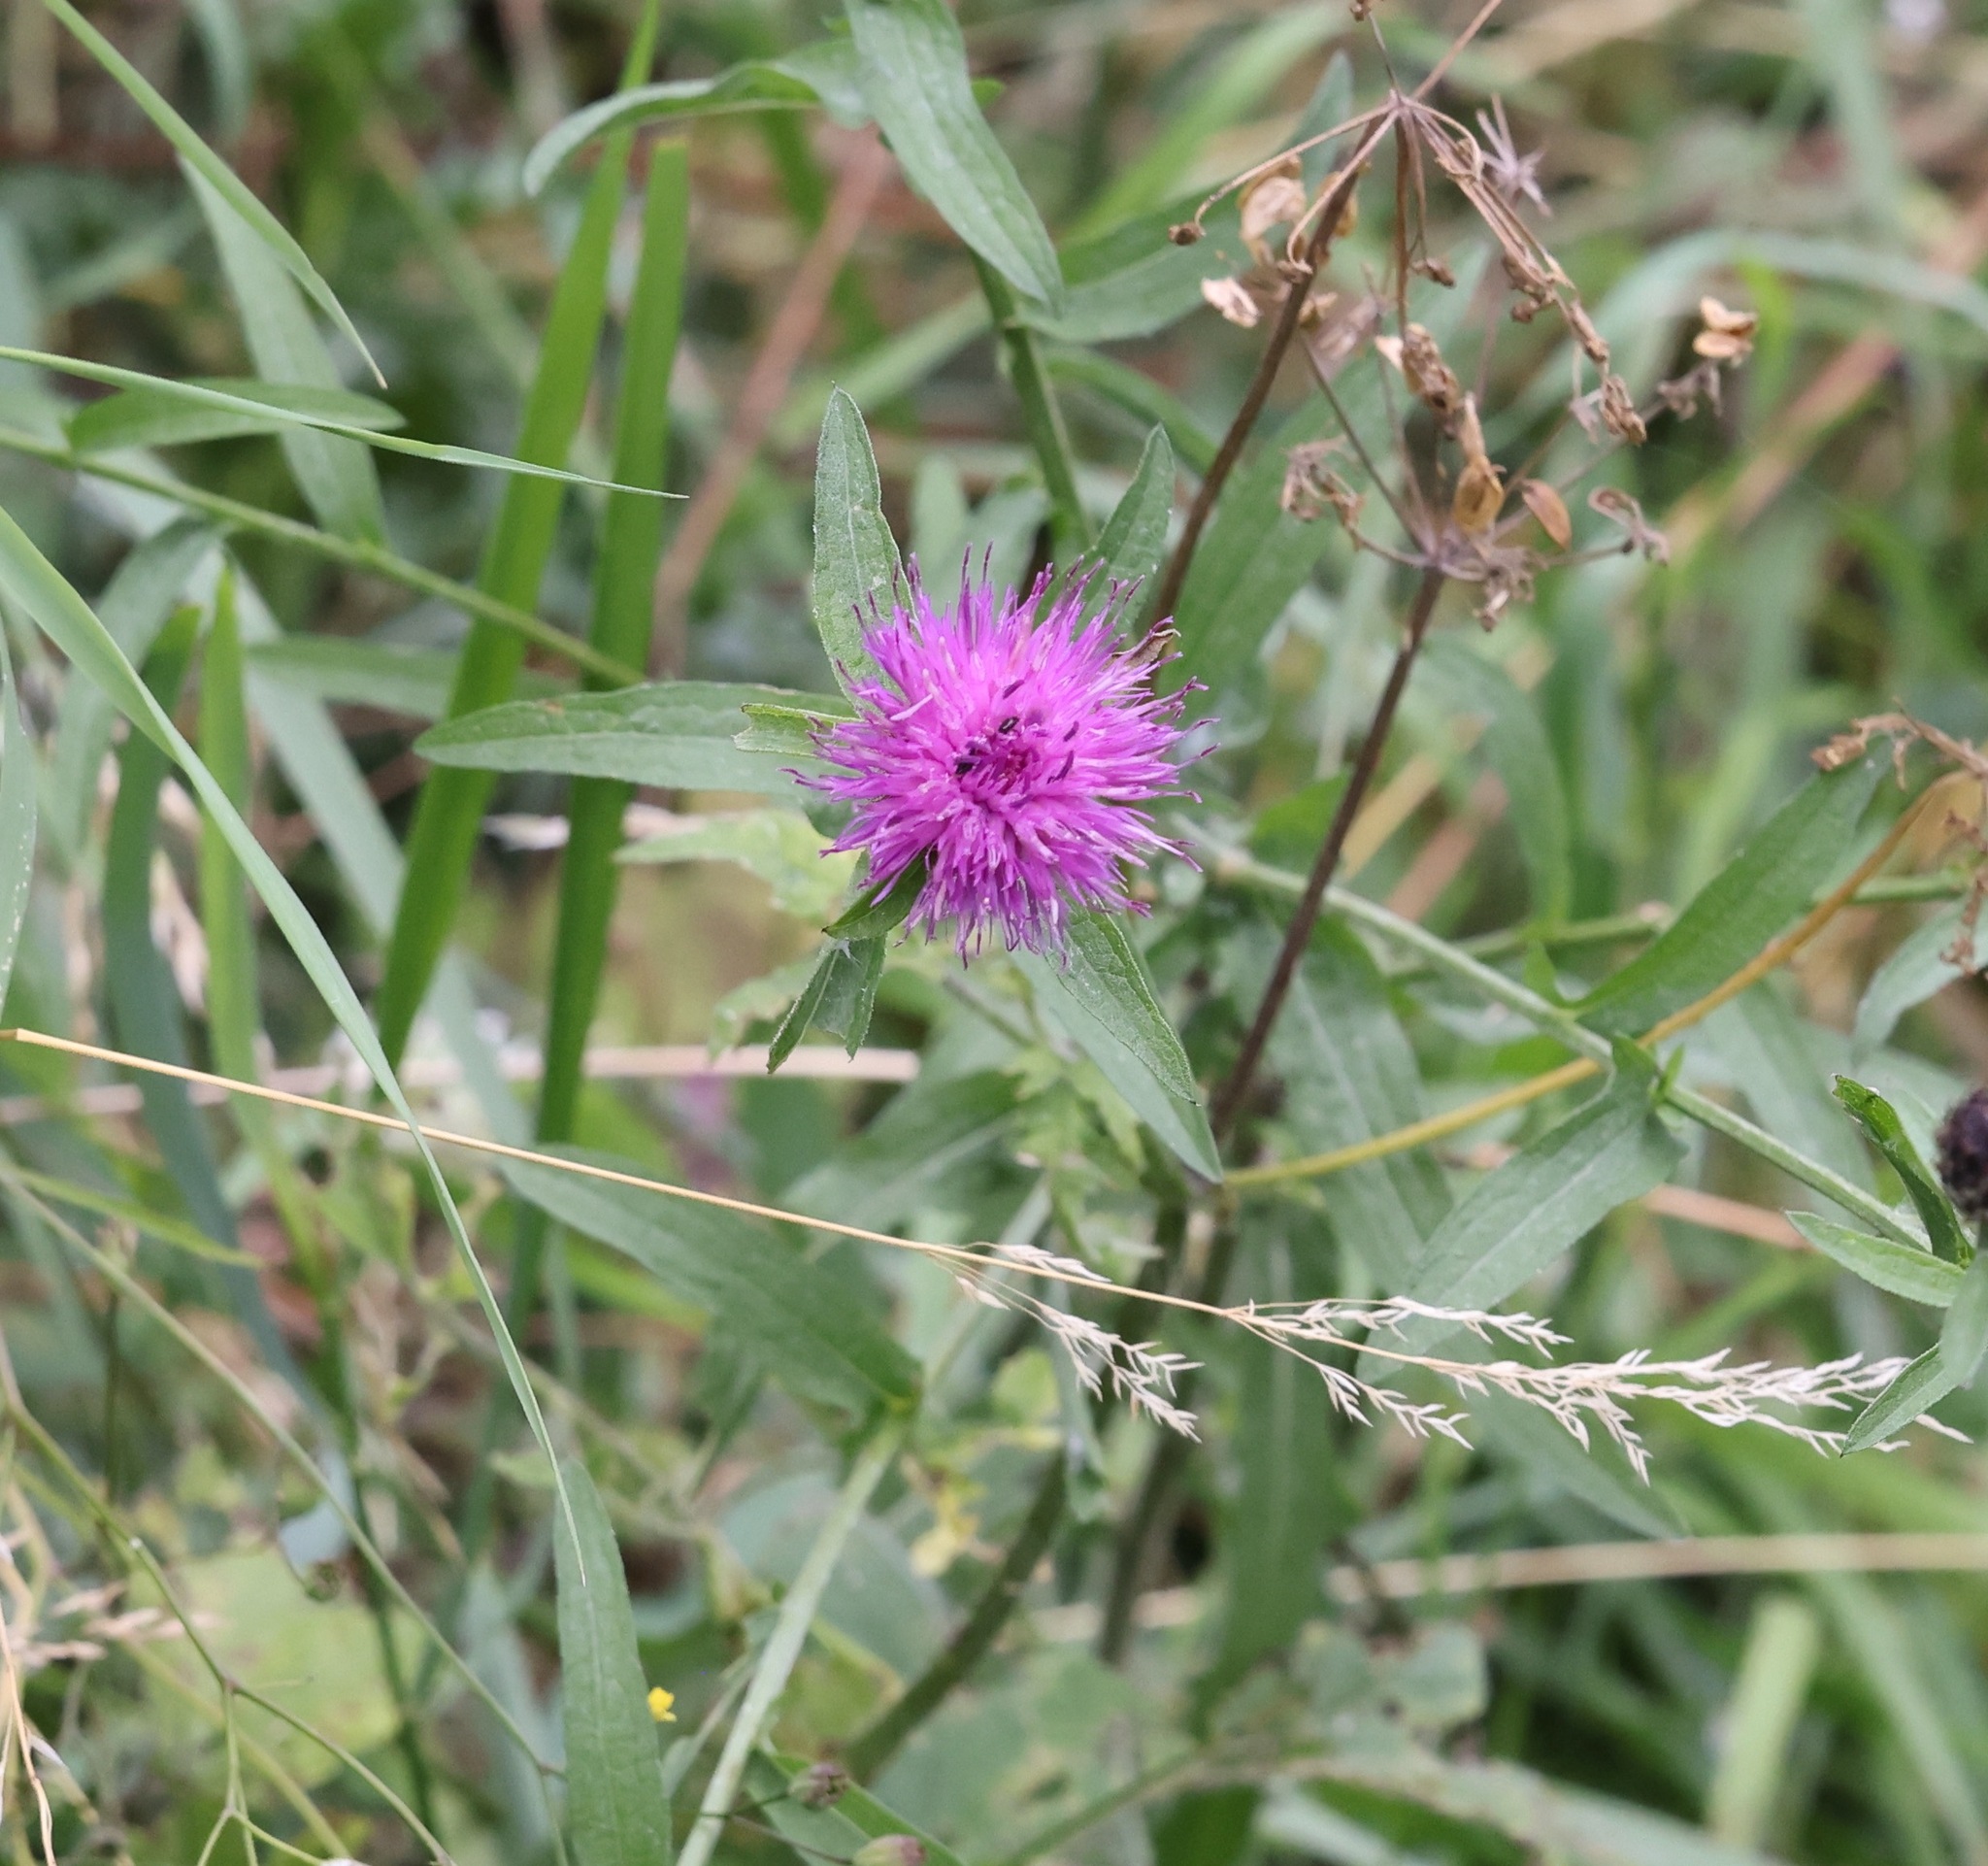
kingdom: Plantae
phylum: Tracheophyta
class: Magnoliopsida
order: Asterales
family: Asteraceae
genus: Centaurea
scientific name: Centaurea nigra
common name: Lesser knapweed
